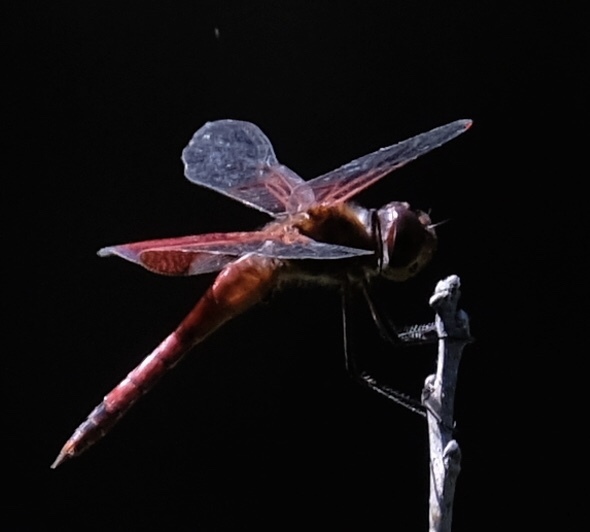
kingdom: Animalia
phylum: Arthropoda
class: Insecta
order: Odonata
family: Libellulidae
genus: Tramea
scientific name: Tramea carolina
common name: Carolina saddlebags
